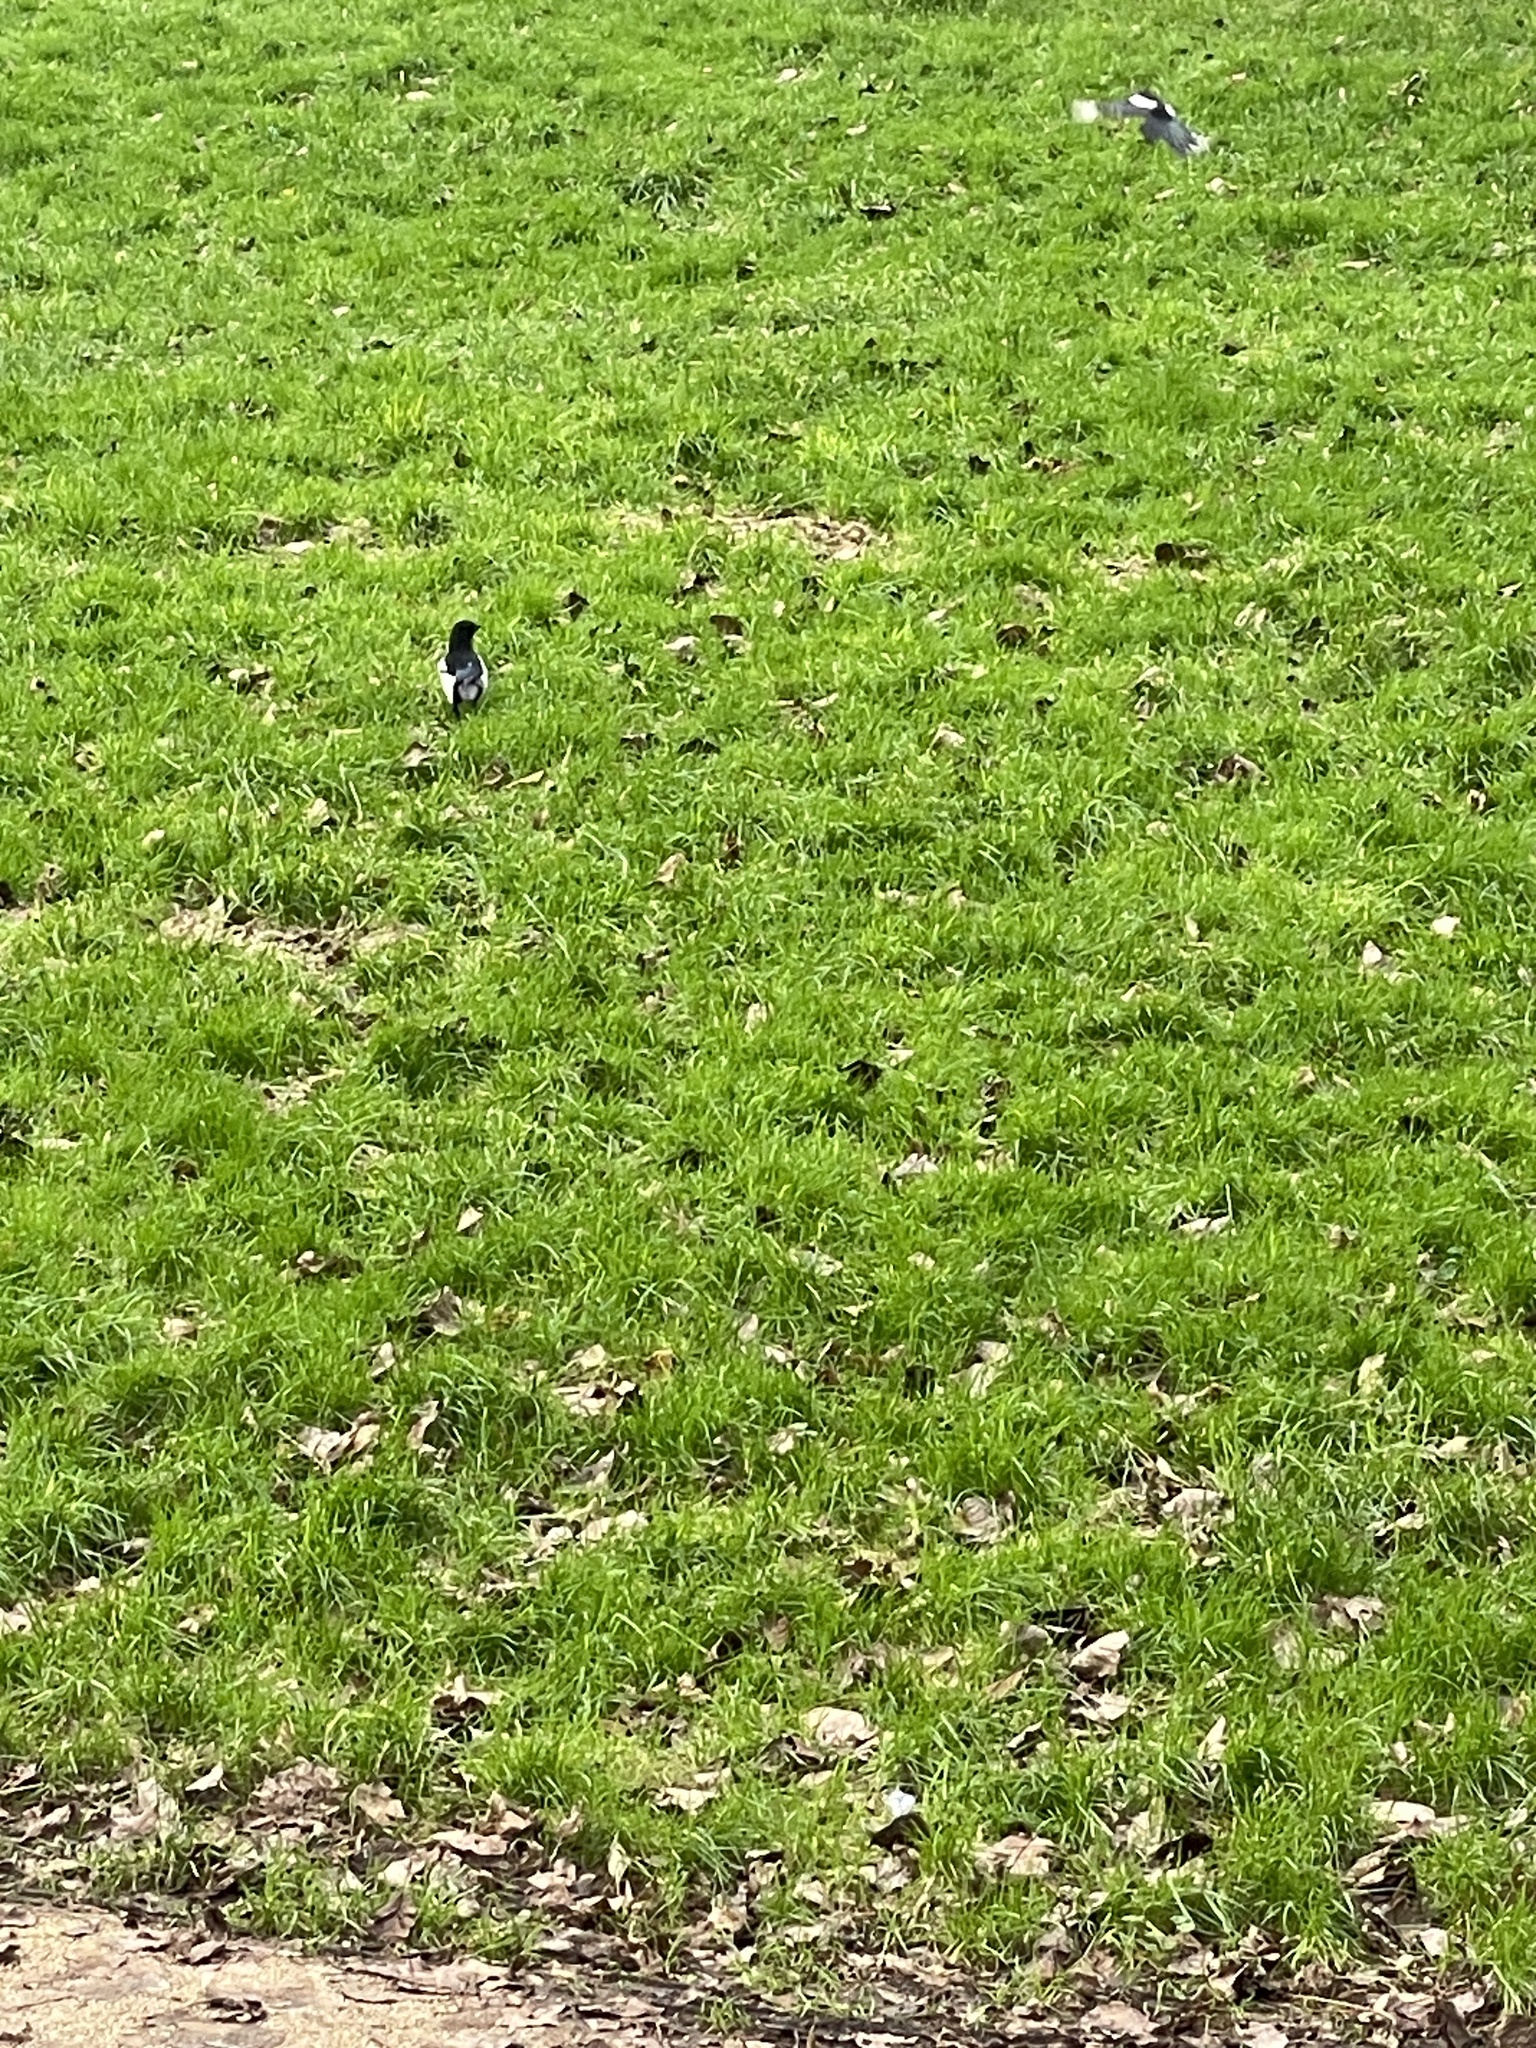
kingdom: Animalia
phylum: Chordata
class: Aves
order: Passeriformes
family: Corvidae
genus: Pica
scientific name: Pica pica
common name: Eurasian magpie
